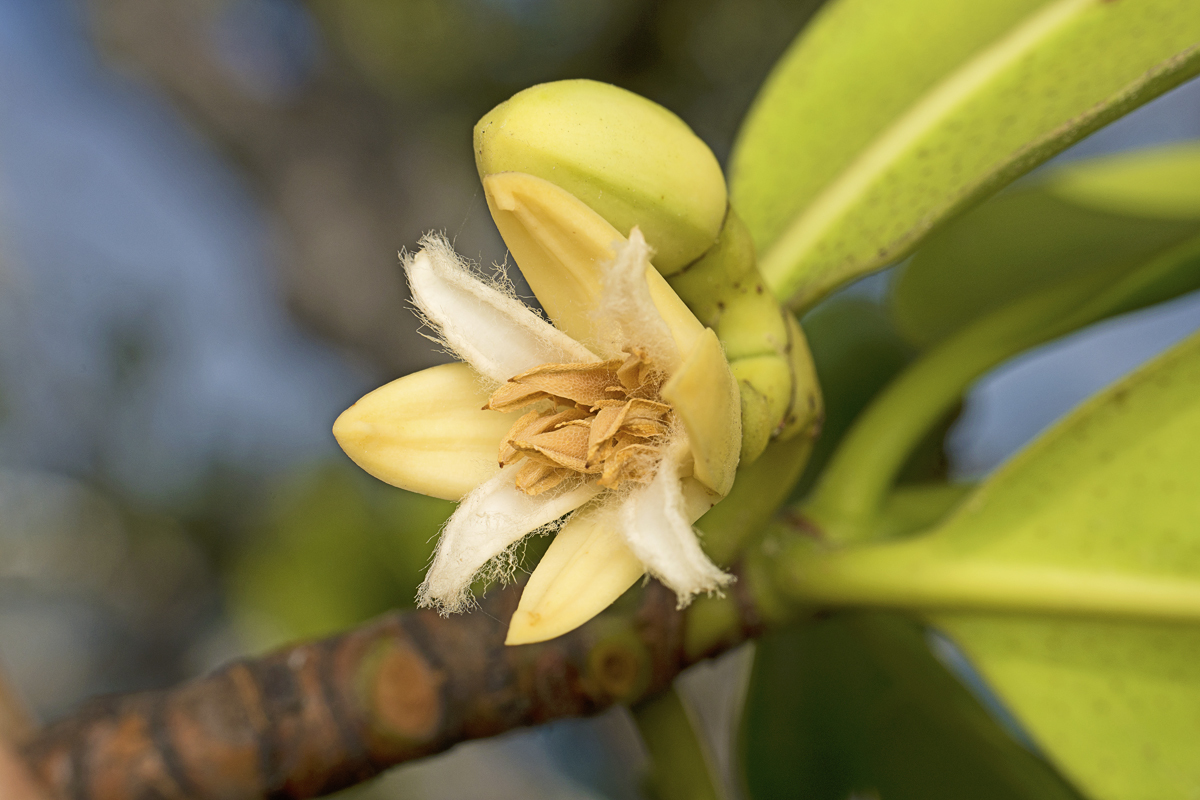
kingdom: Plantae
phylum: Tracheophyta
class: Magnoliopsida
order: Malpighiales
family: Rhizophoraceae
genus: Rhizophora
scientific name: Rhizophora stylosa
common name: Red mangrove
